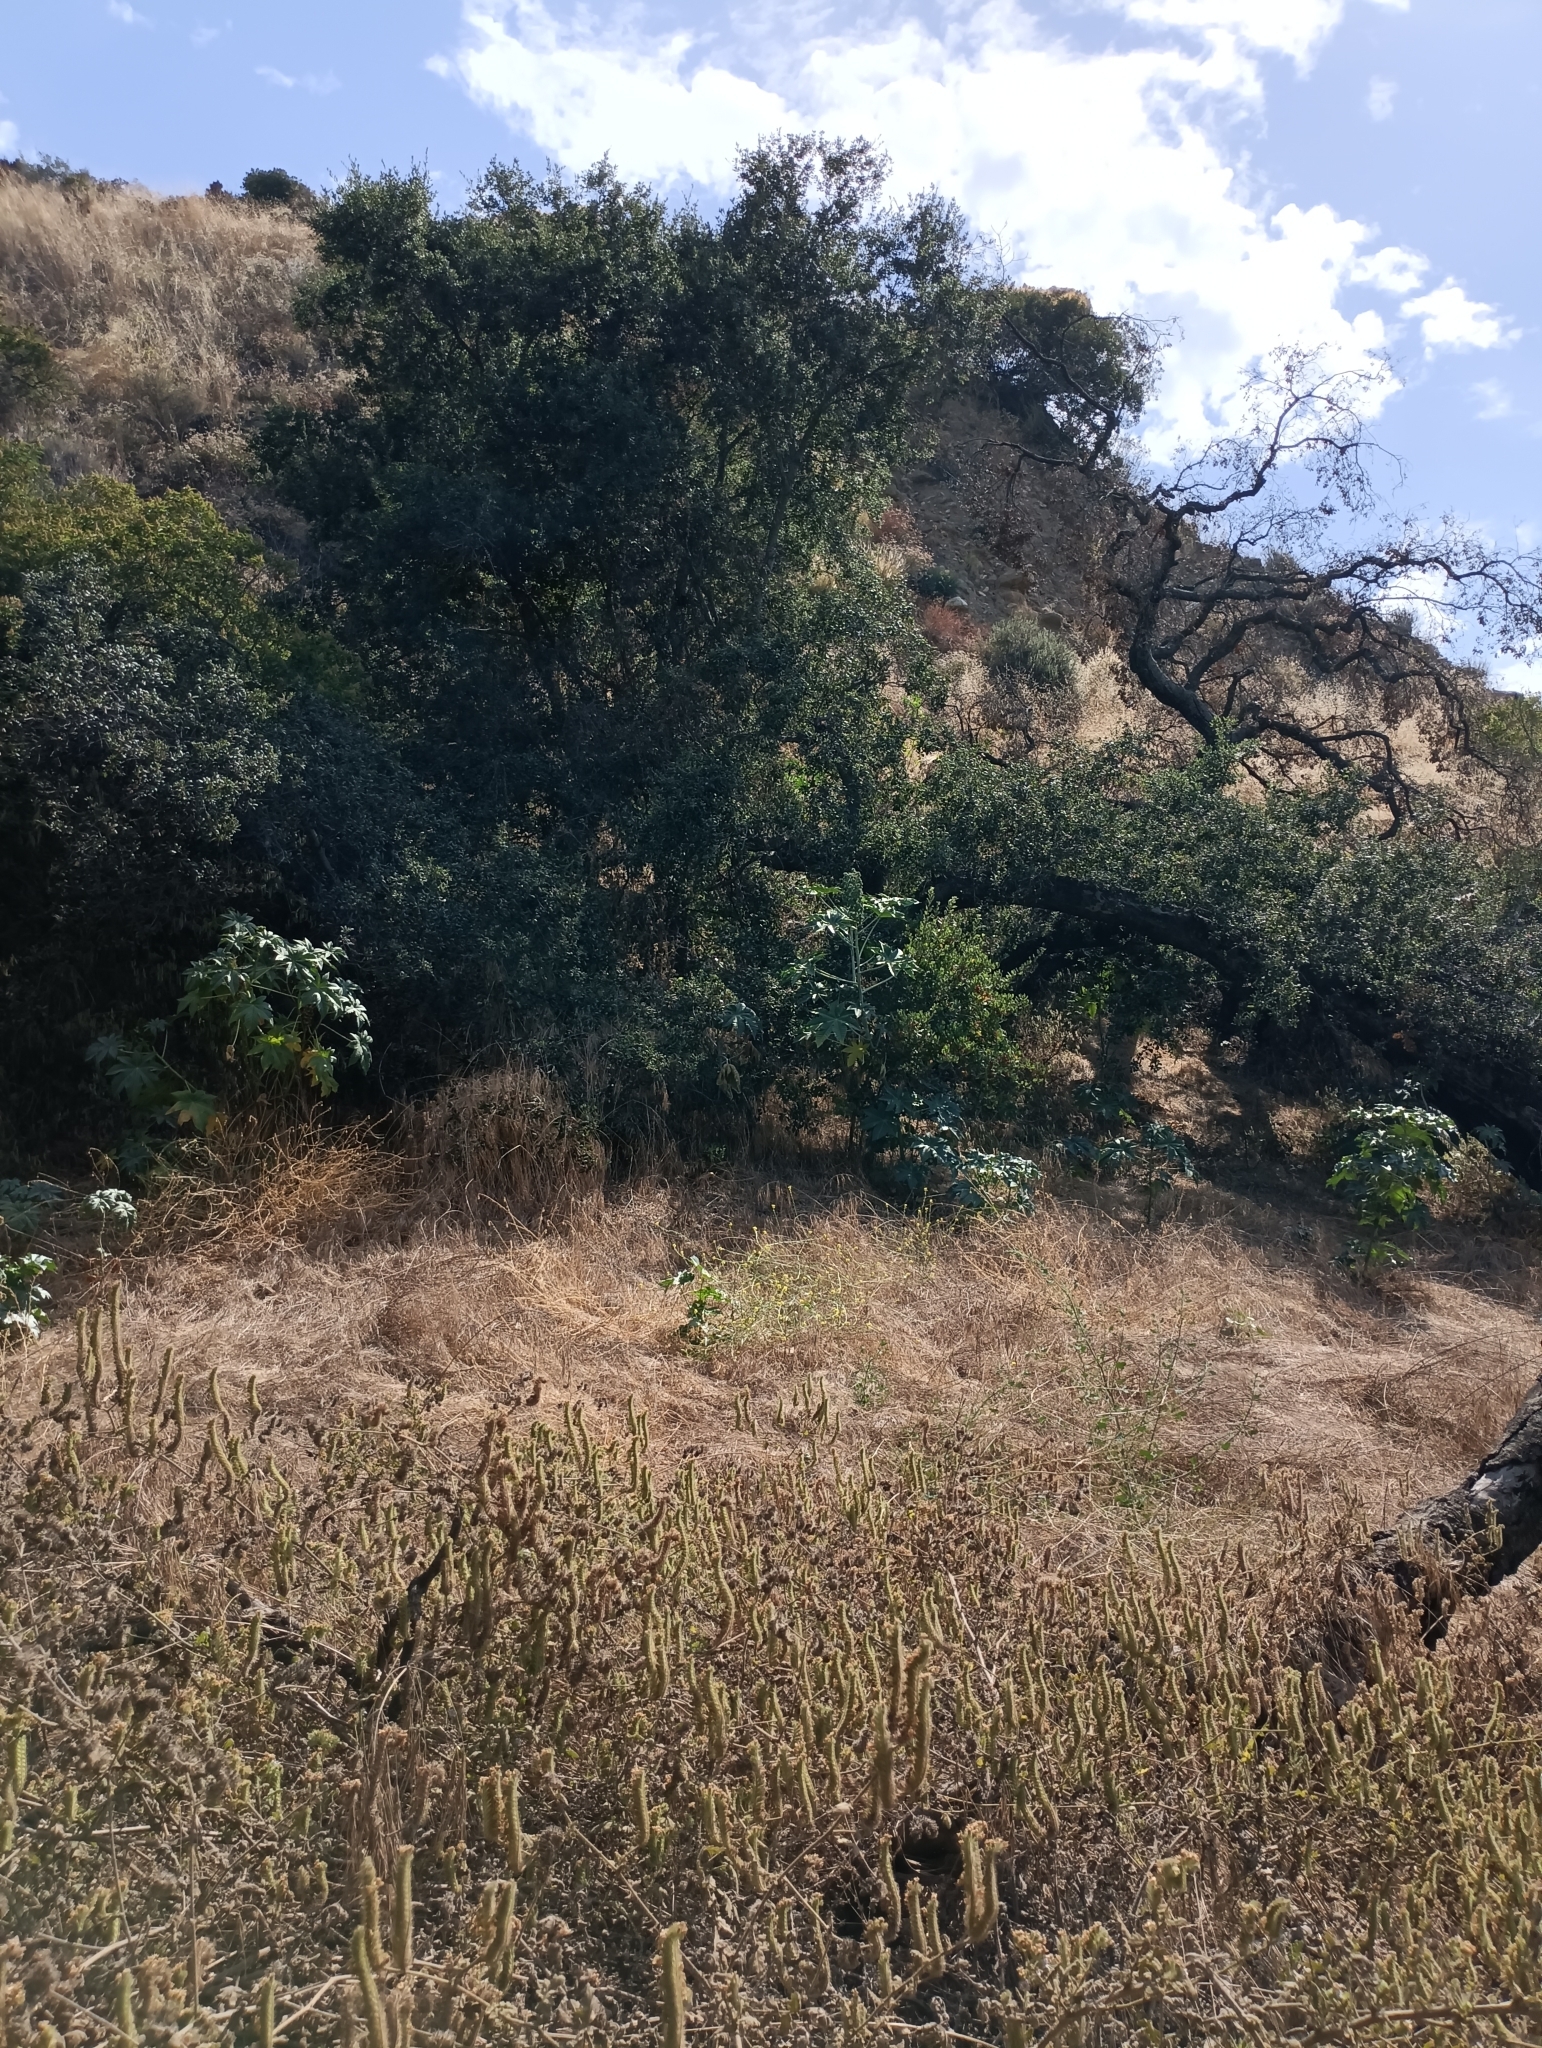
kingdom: Plantae
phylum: Tracheophyta
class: Magnoliopsida
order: Malpighiales
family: Euphorbiaceae
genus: Ricinus
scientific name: Ricinus communis
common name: Castor-oil-plant
